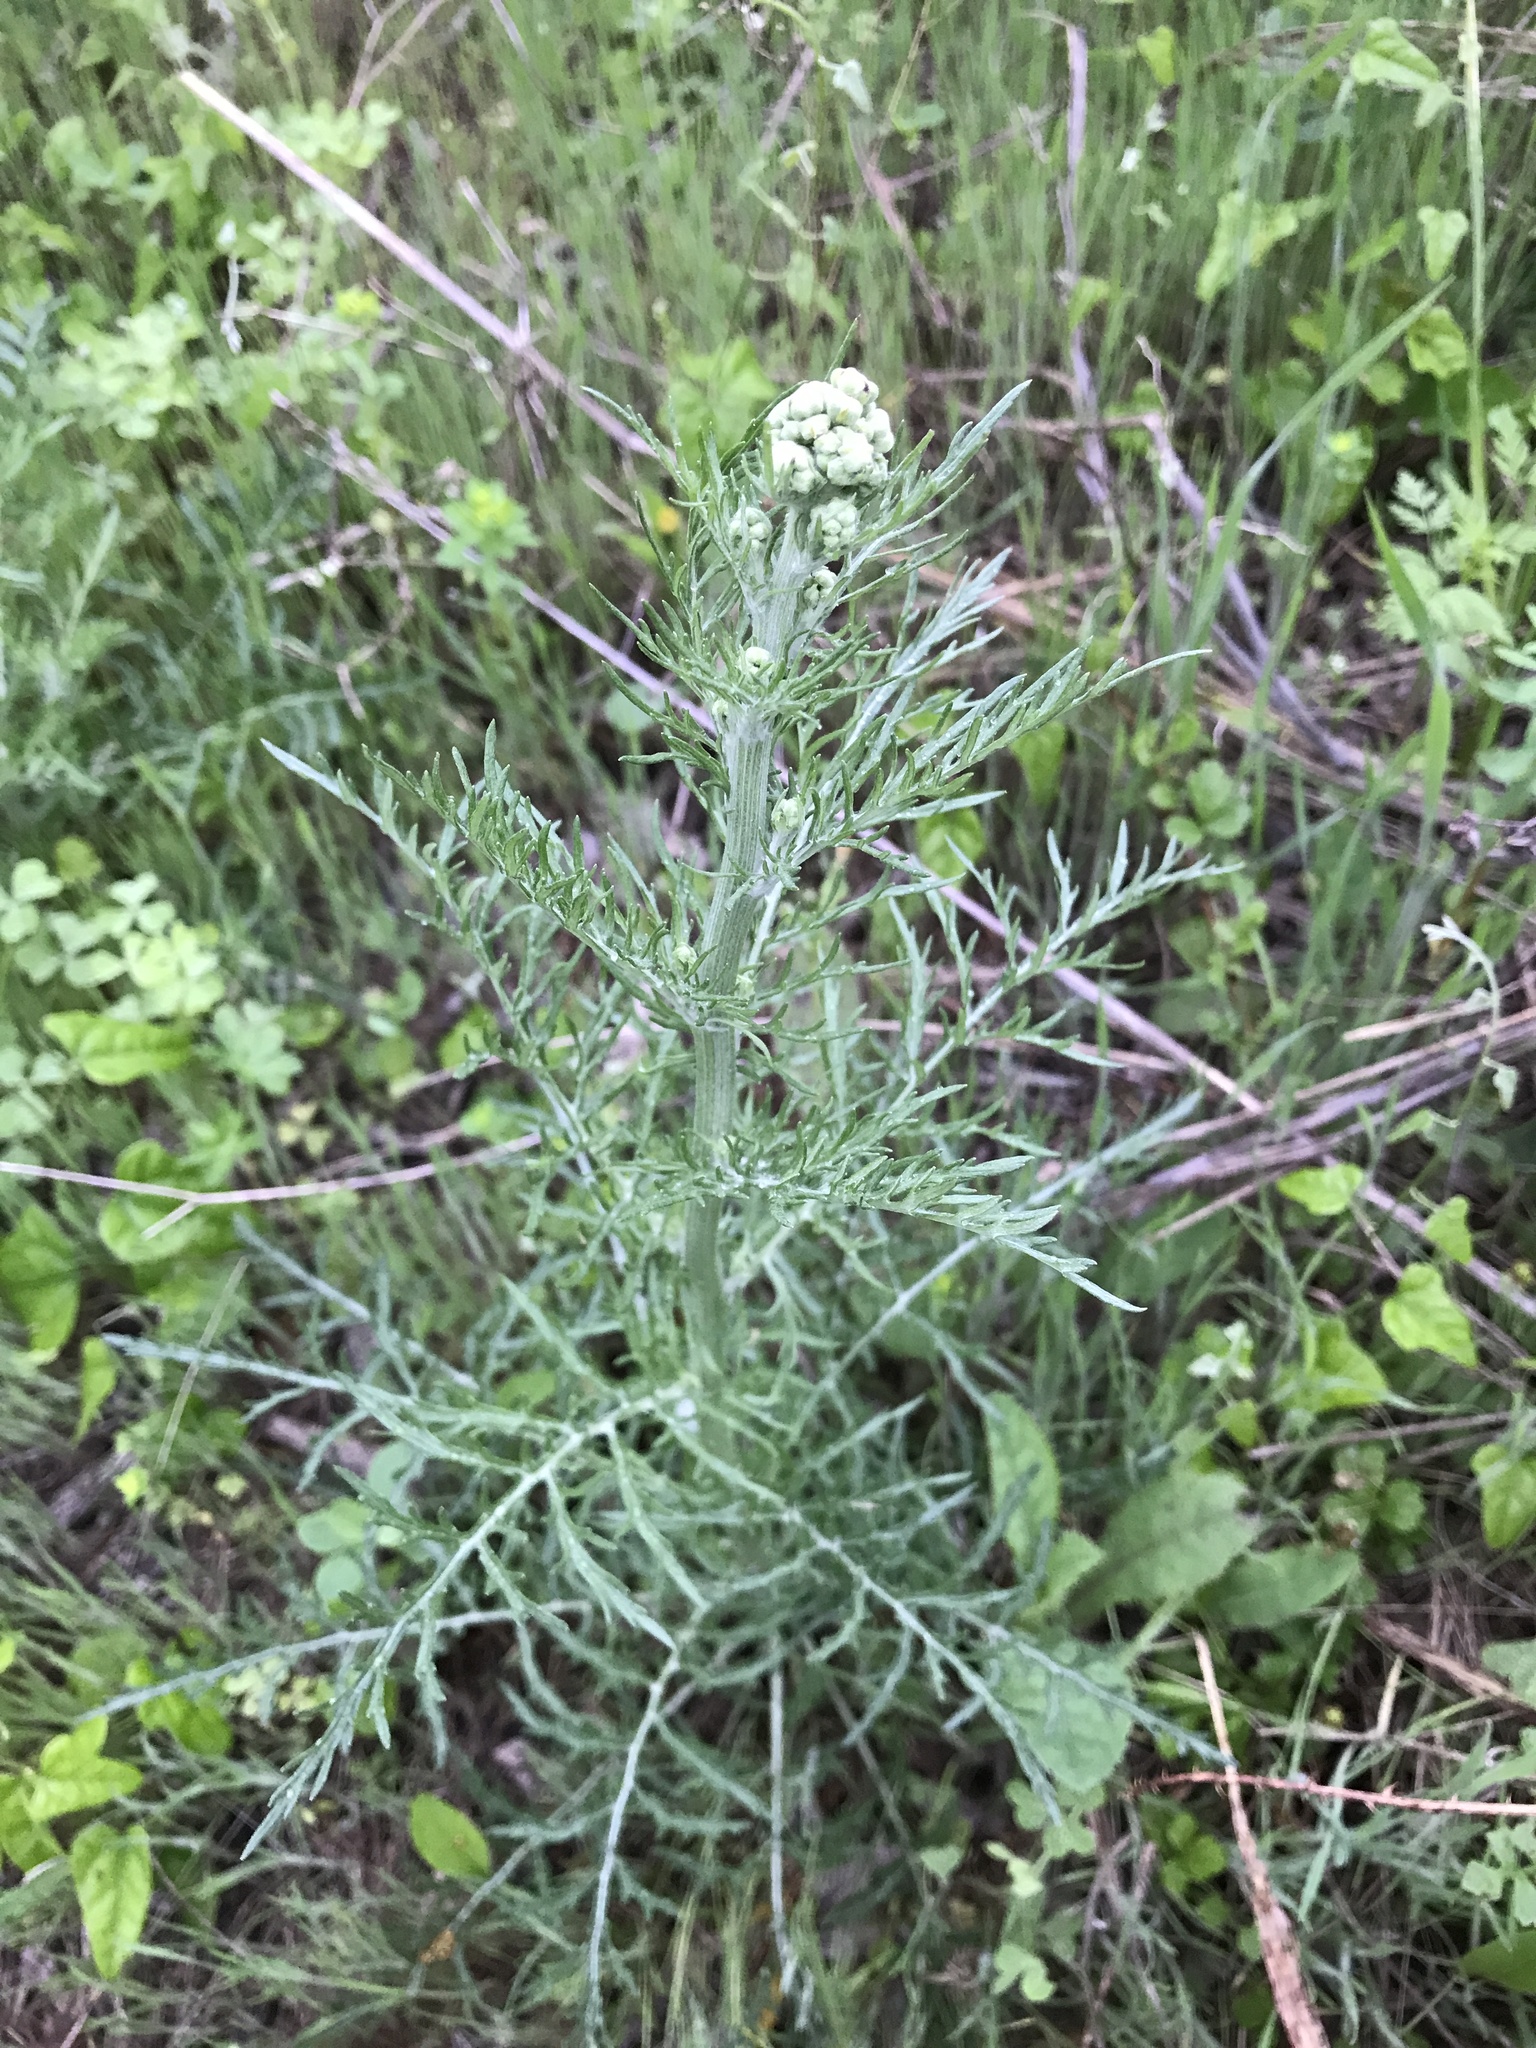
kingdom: Plantae
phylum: Tracheophyta
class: Magnoliopsida
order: Asterales
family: Asteraceae
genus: Hymenopappus
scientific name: Hymenopappus scabiosaeus
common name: Carolina woollywhite
